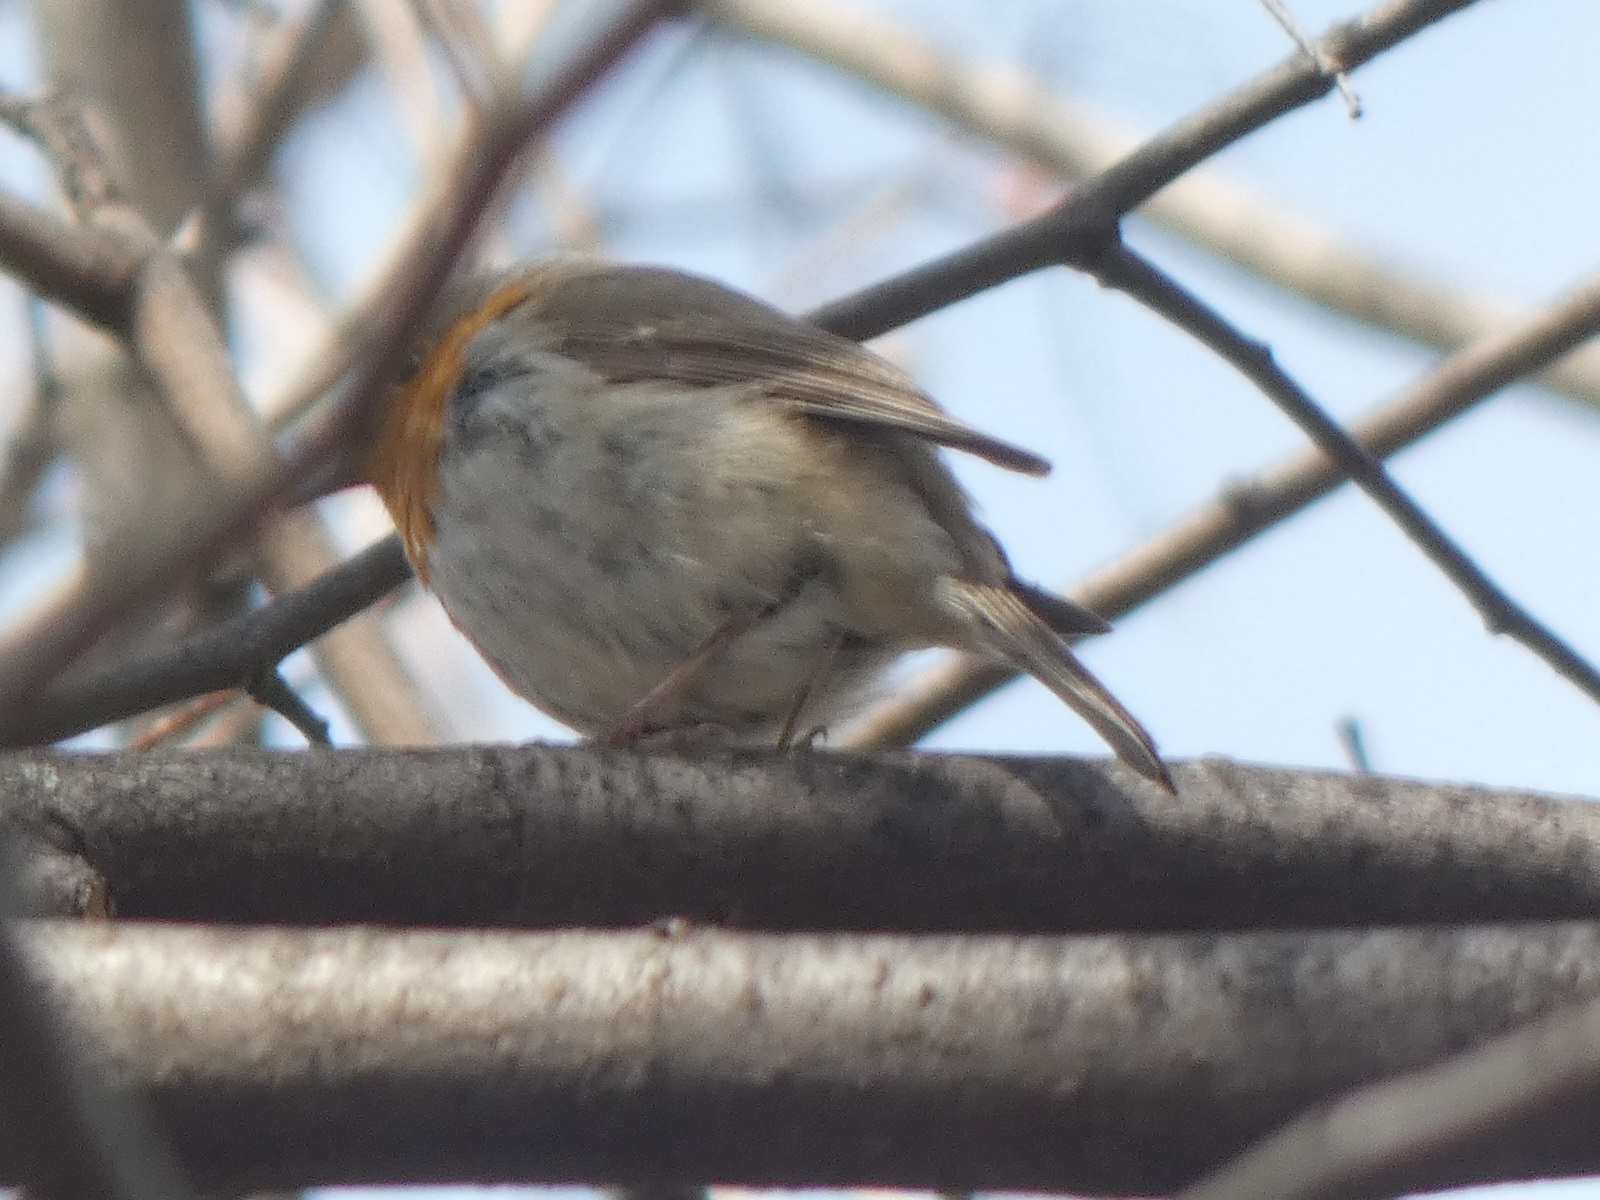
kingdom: Animalia
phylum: Chordata
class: Aves
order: Passeriformes
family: Muscicapidae
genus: Erithacus
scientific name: Erithacus rubecula
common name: European robin
